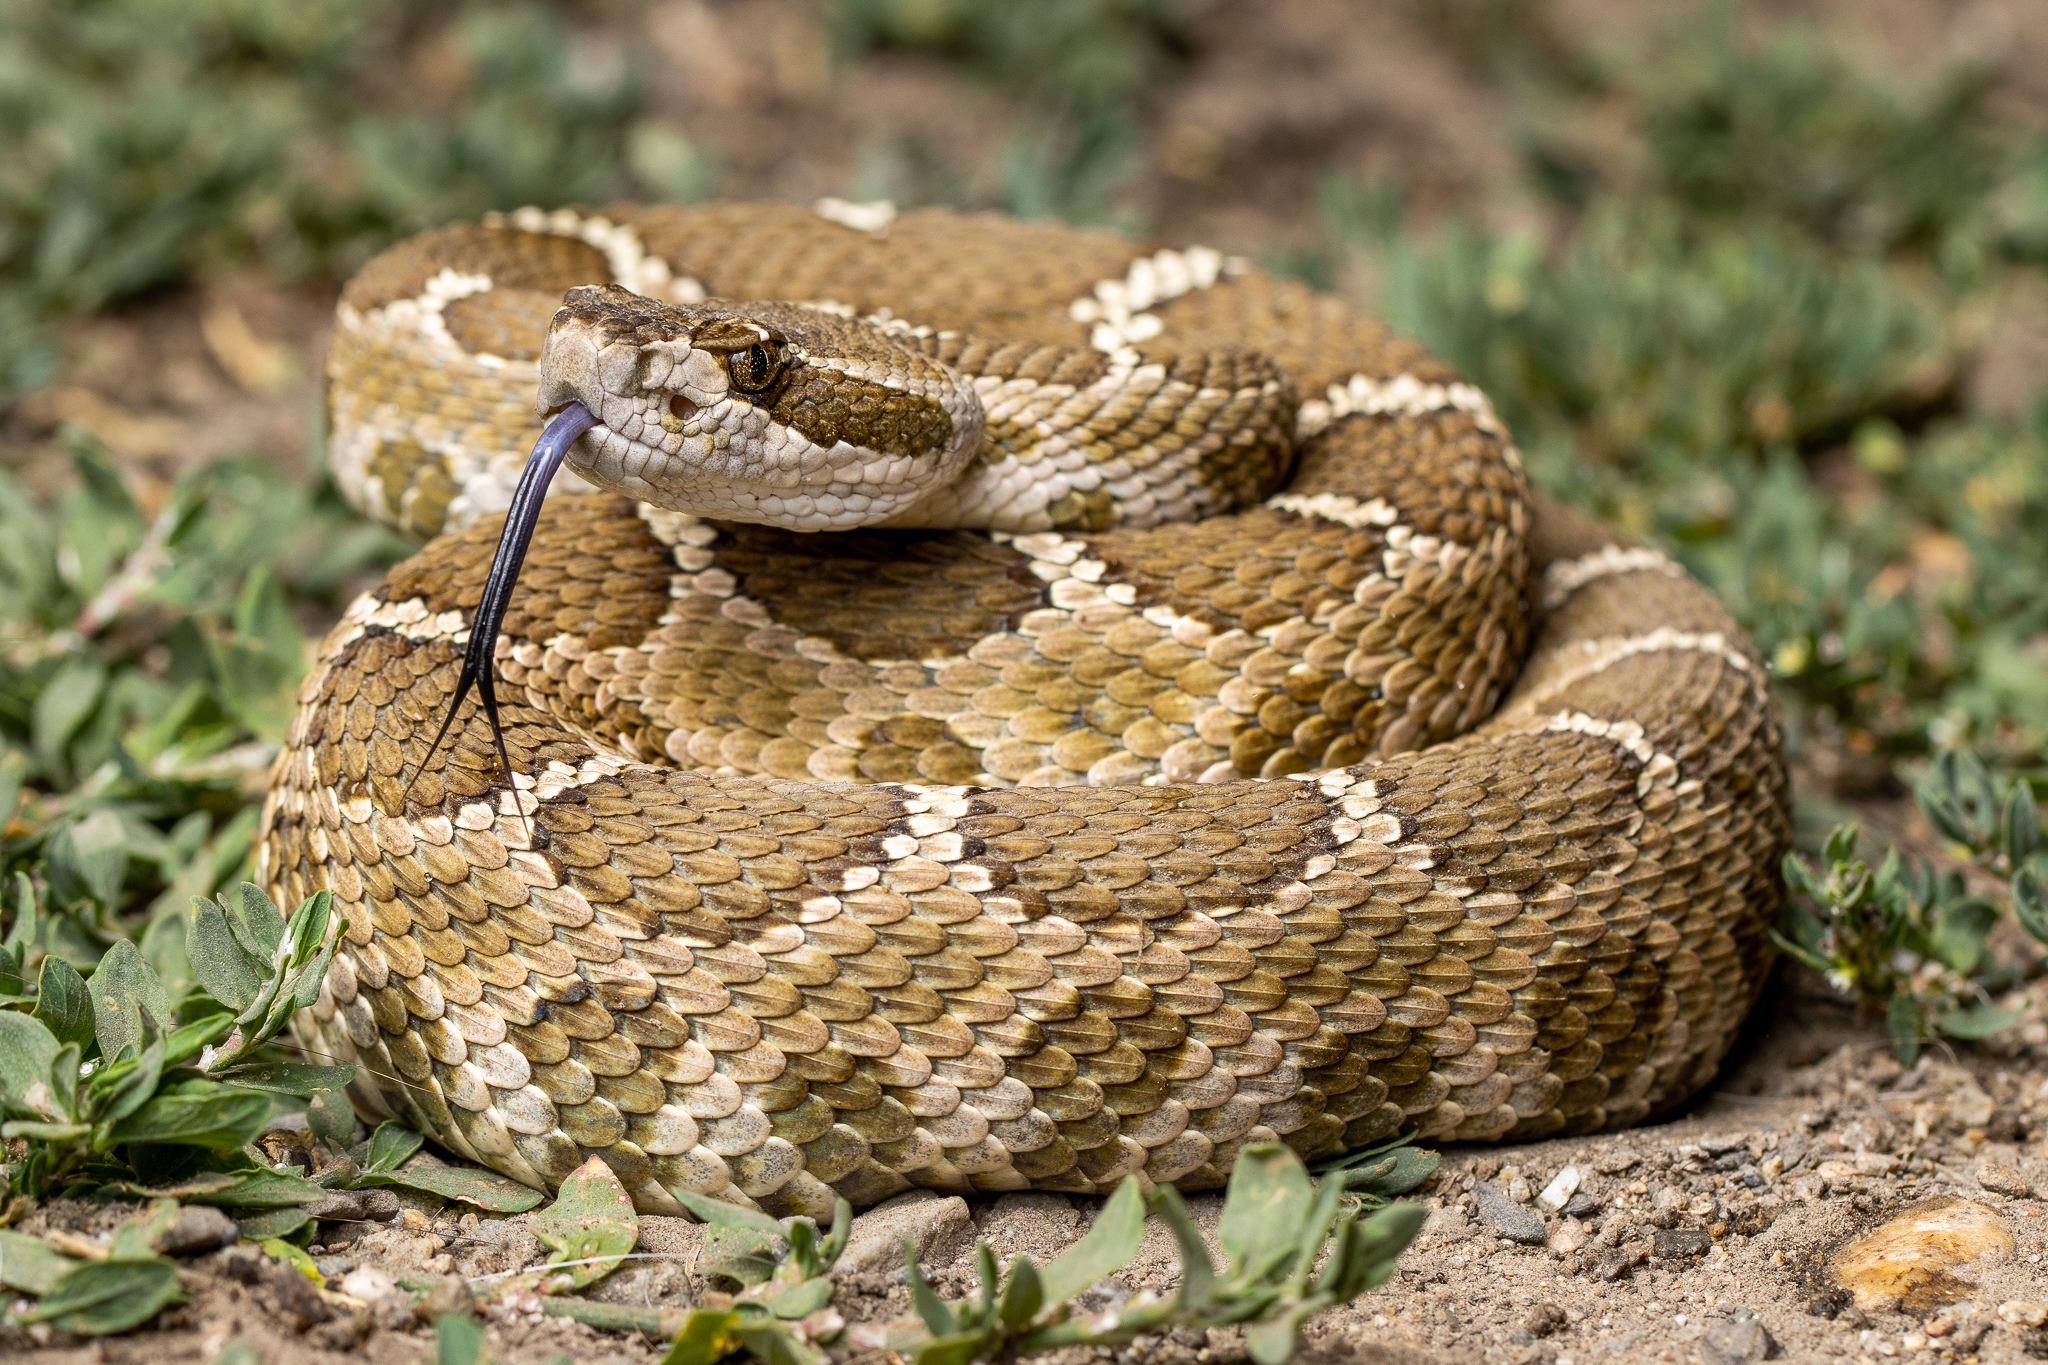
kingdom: Animalia
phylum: Chordata
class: Squamata
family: Viperidae
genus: Crotalus
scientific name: Crotalus oreganus
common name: Abyssus
